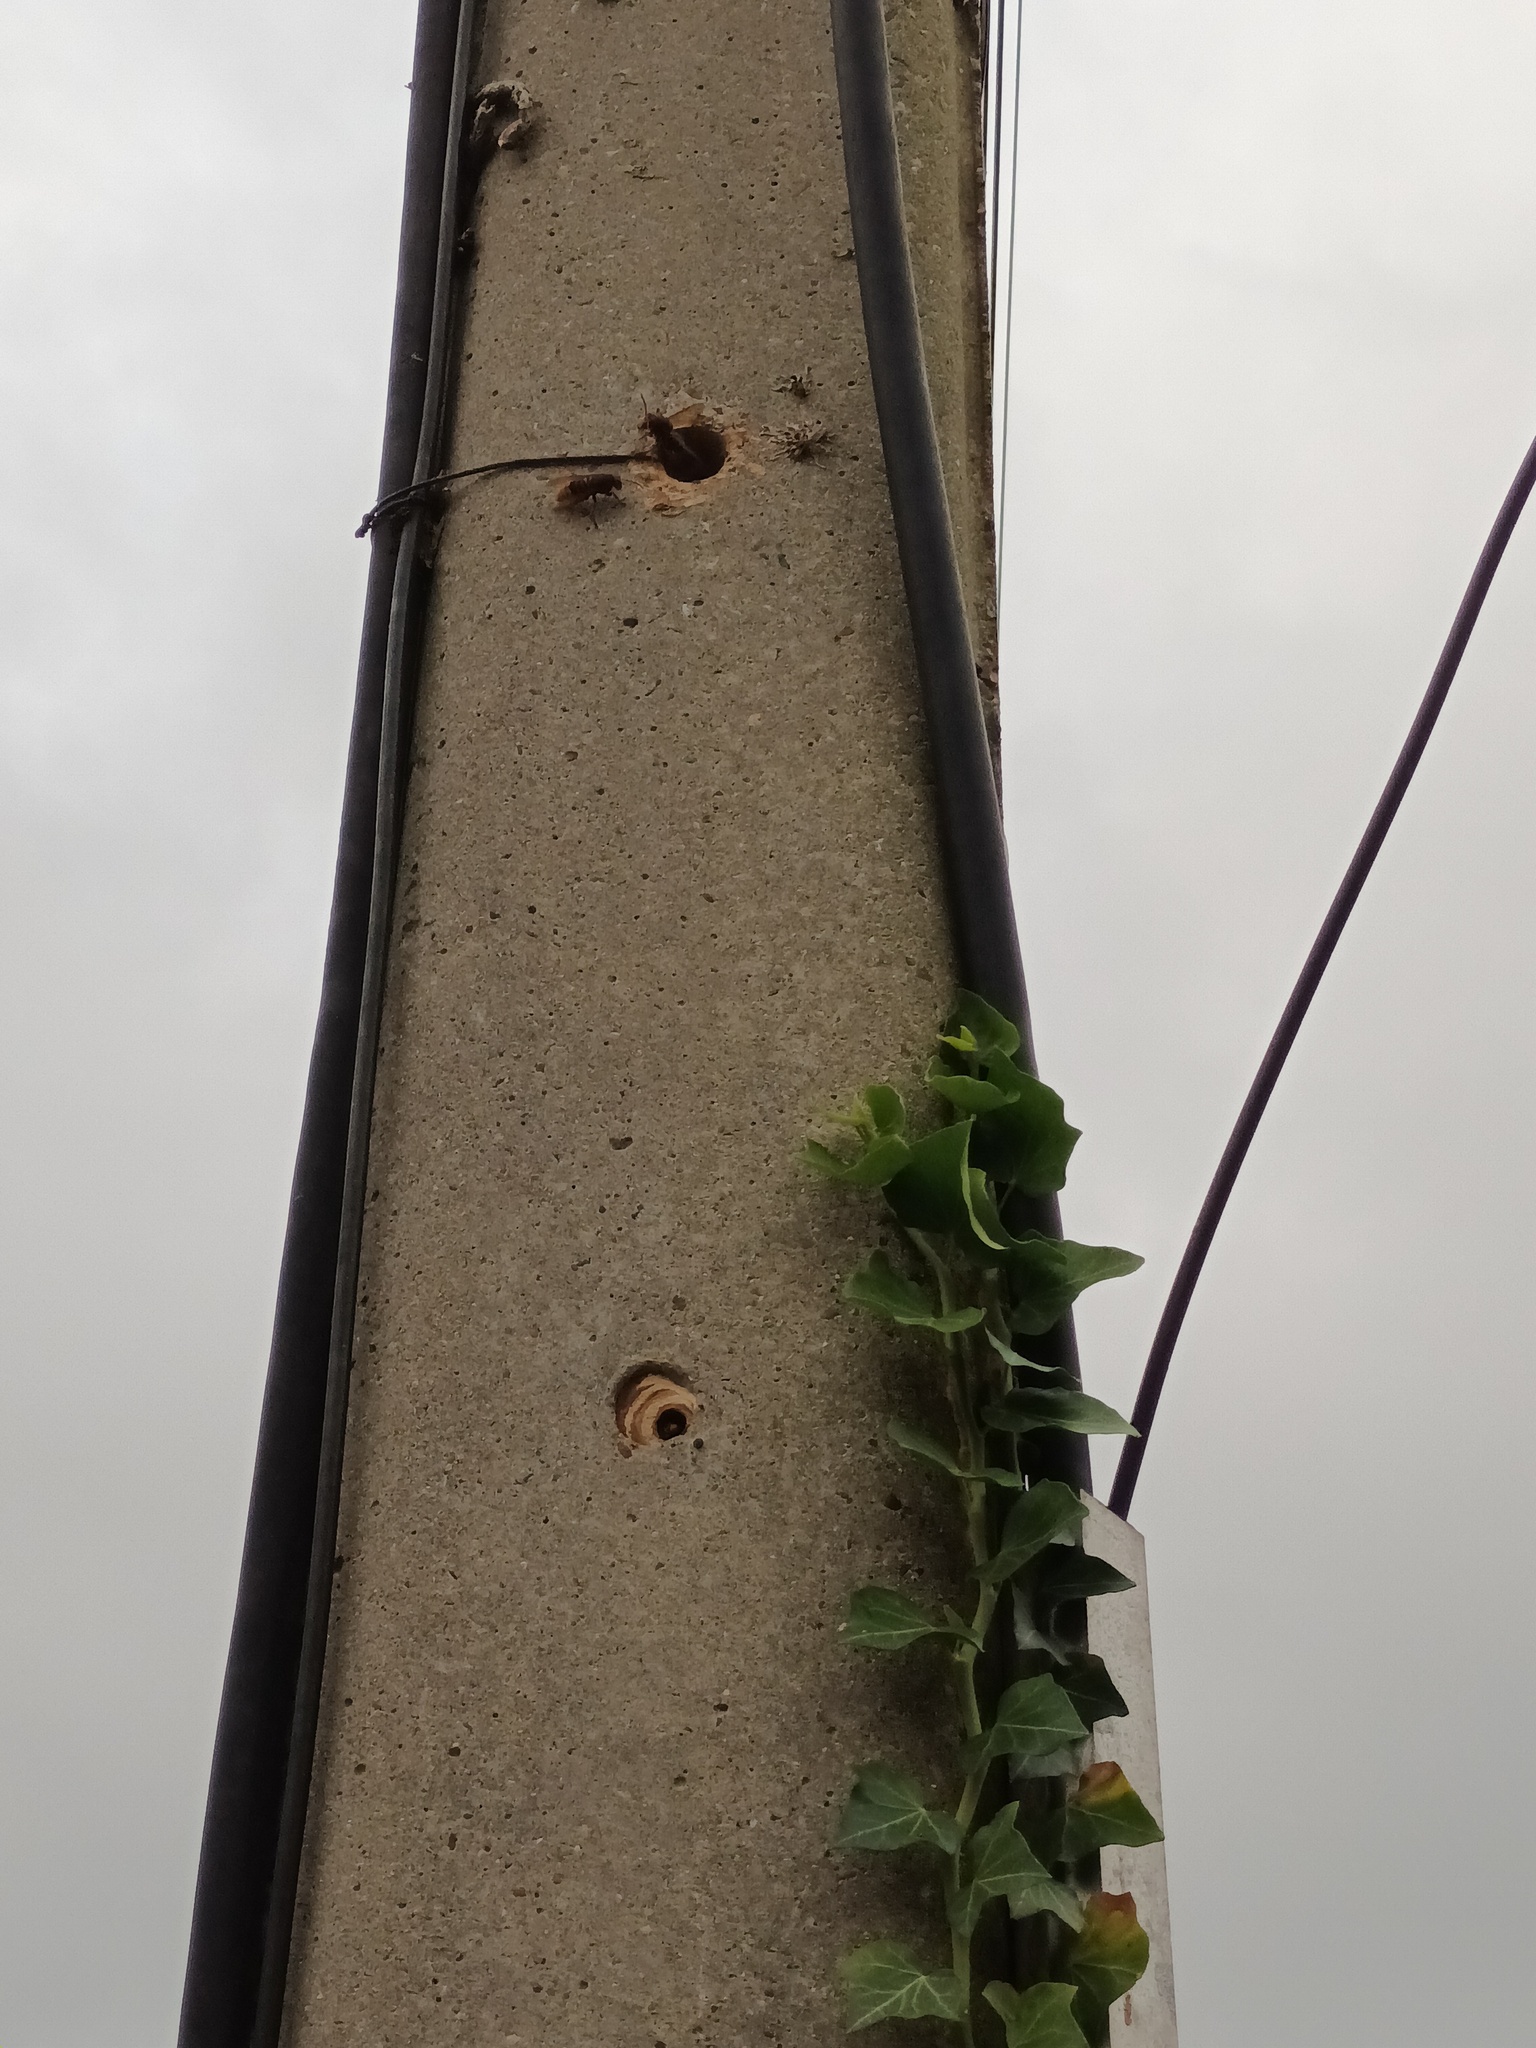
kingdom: Animalia
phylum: Arthropoda
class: Insecta
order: Hymenoptera
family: Vespidae
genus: Vespa
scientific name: Vespa crabro
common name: Hornet
